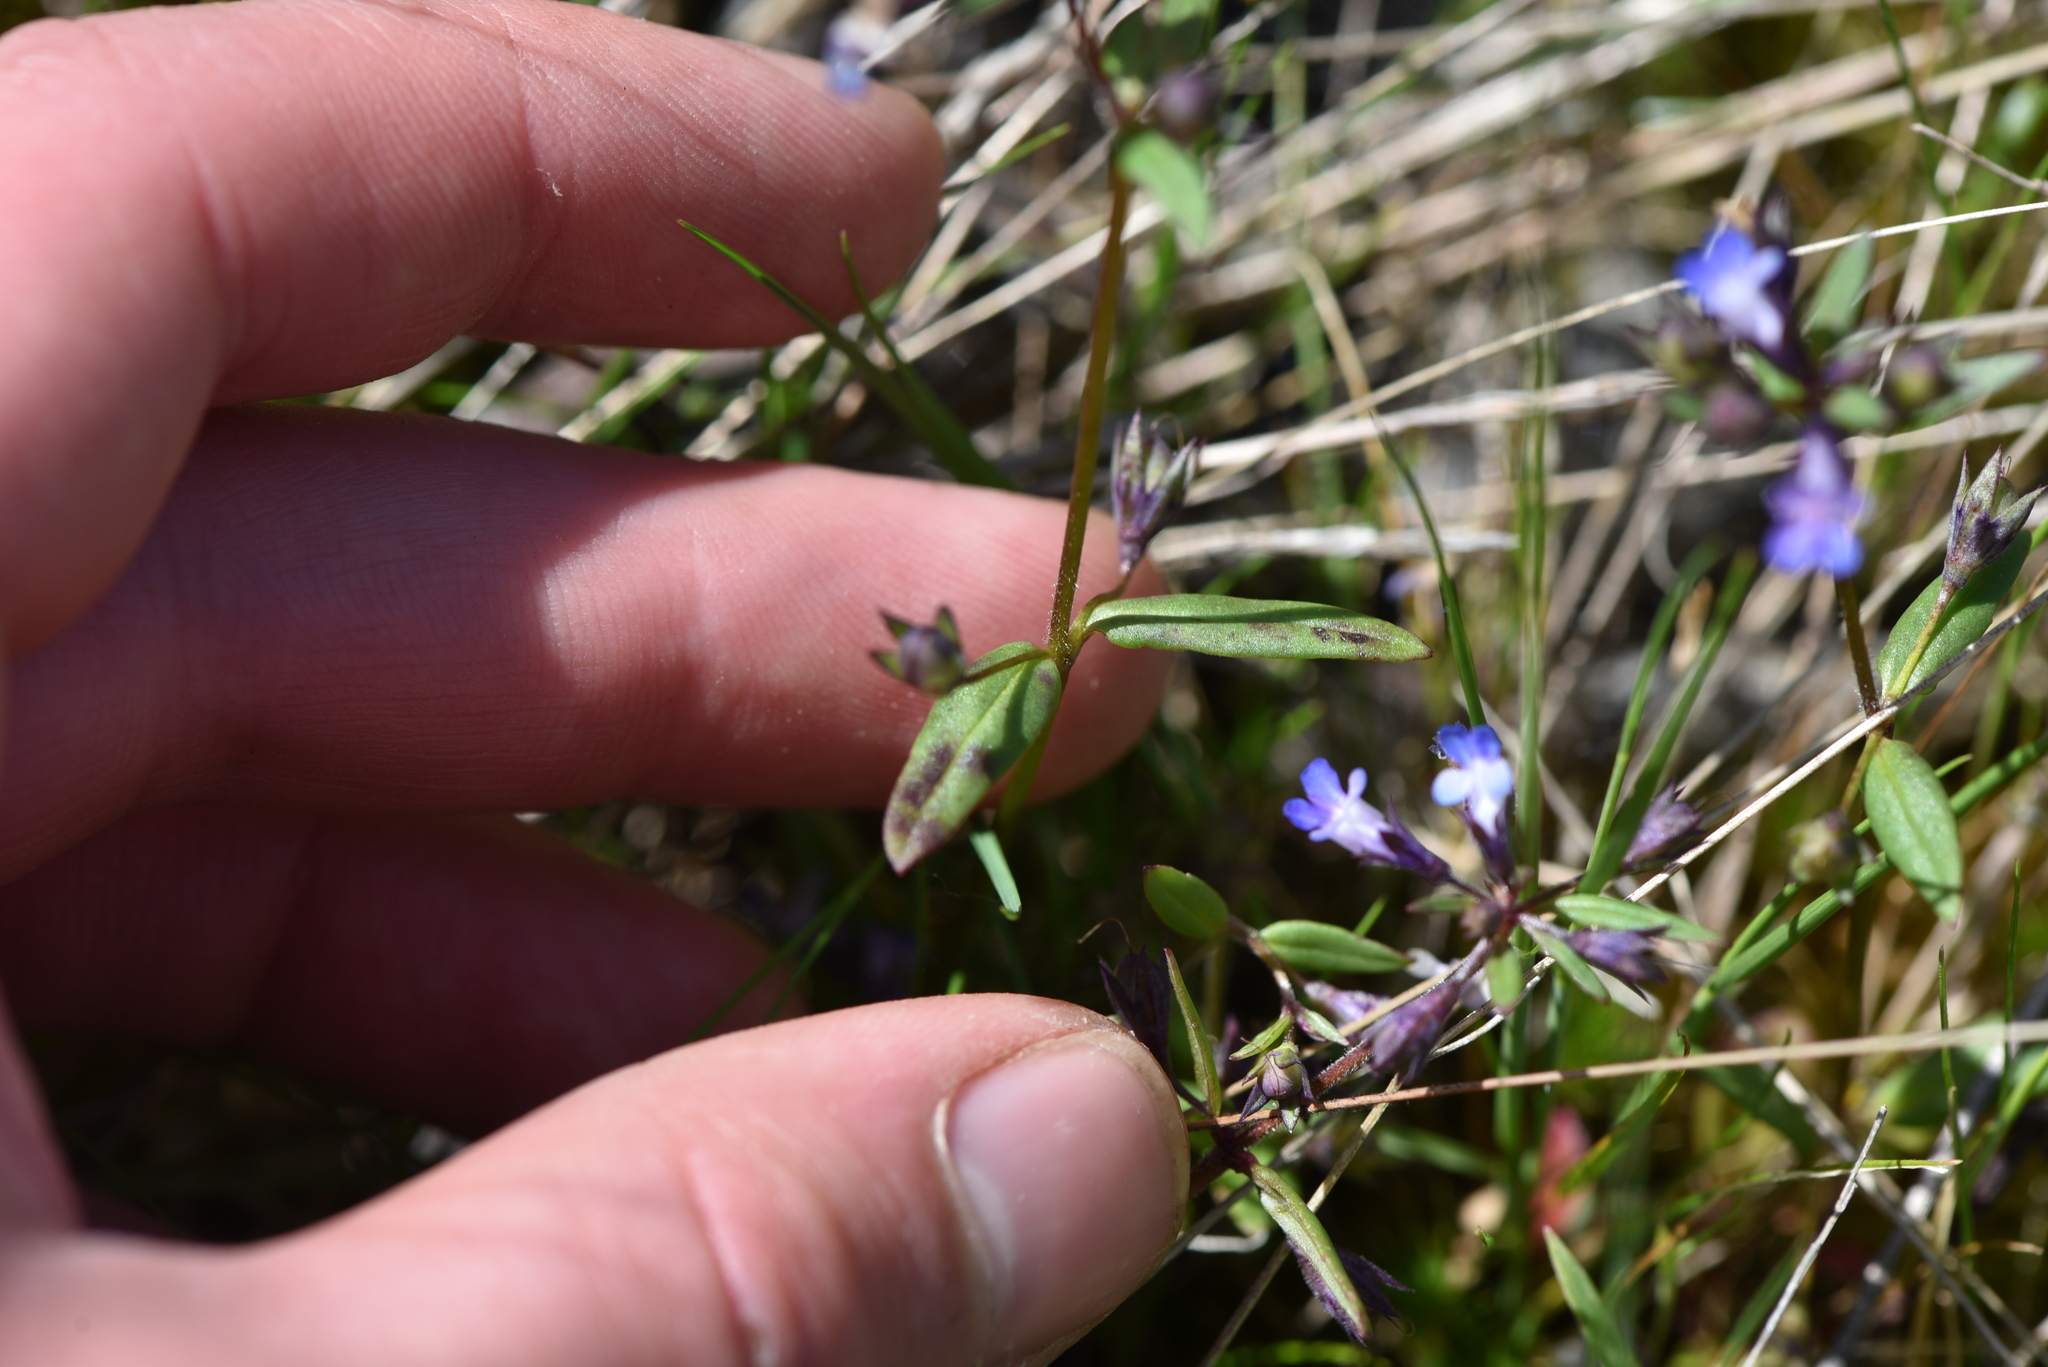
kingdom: Plantae
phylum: Tracheophyta
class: Magnoliopsida
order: Lamiales
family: Plantaginaceae
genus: Collinsia
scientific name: Collinsia parviflora
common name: Blue-lips
